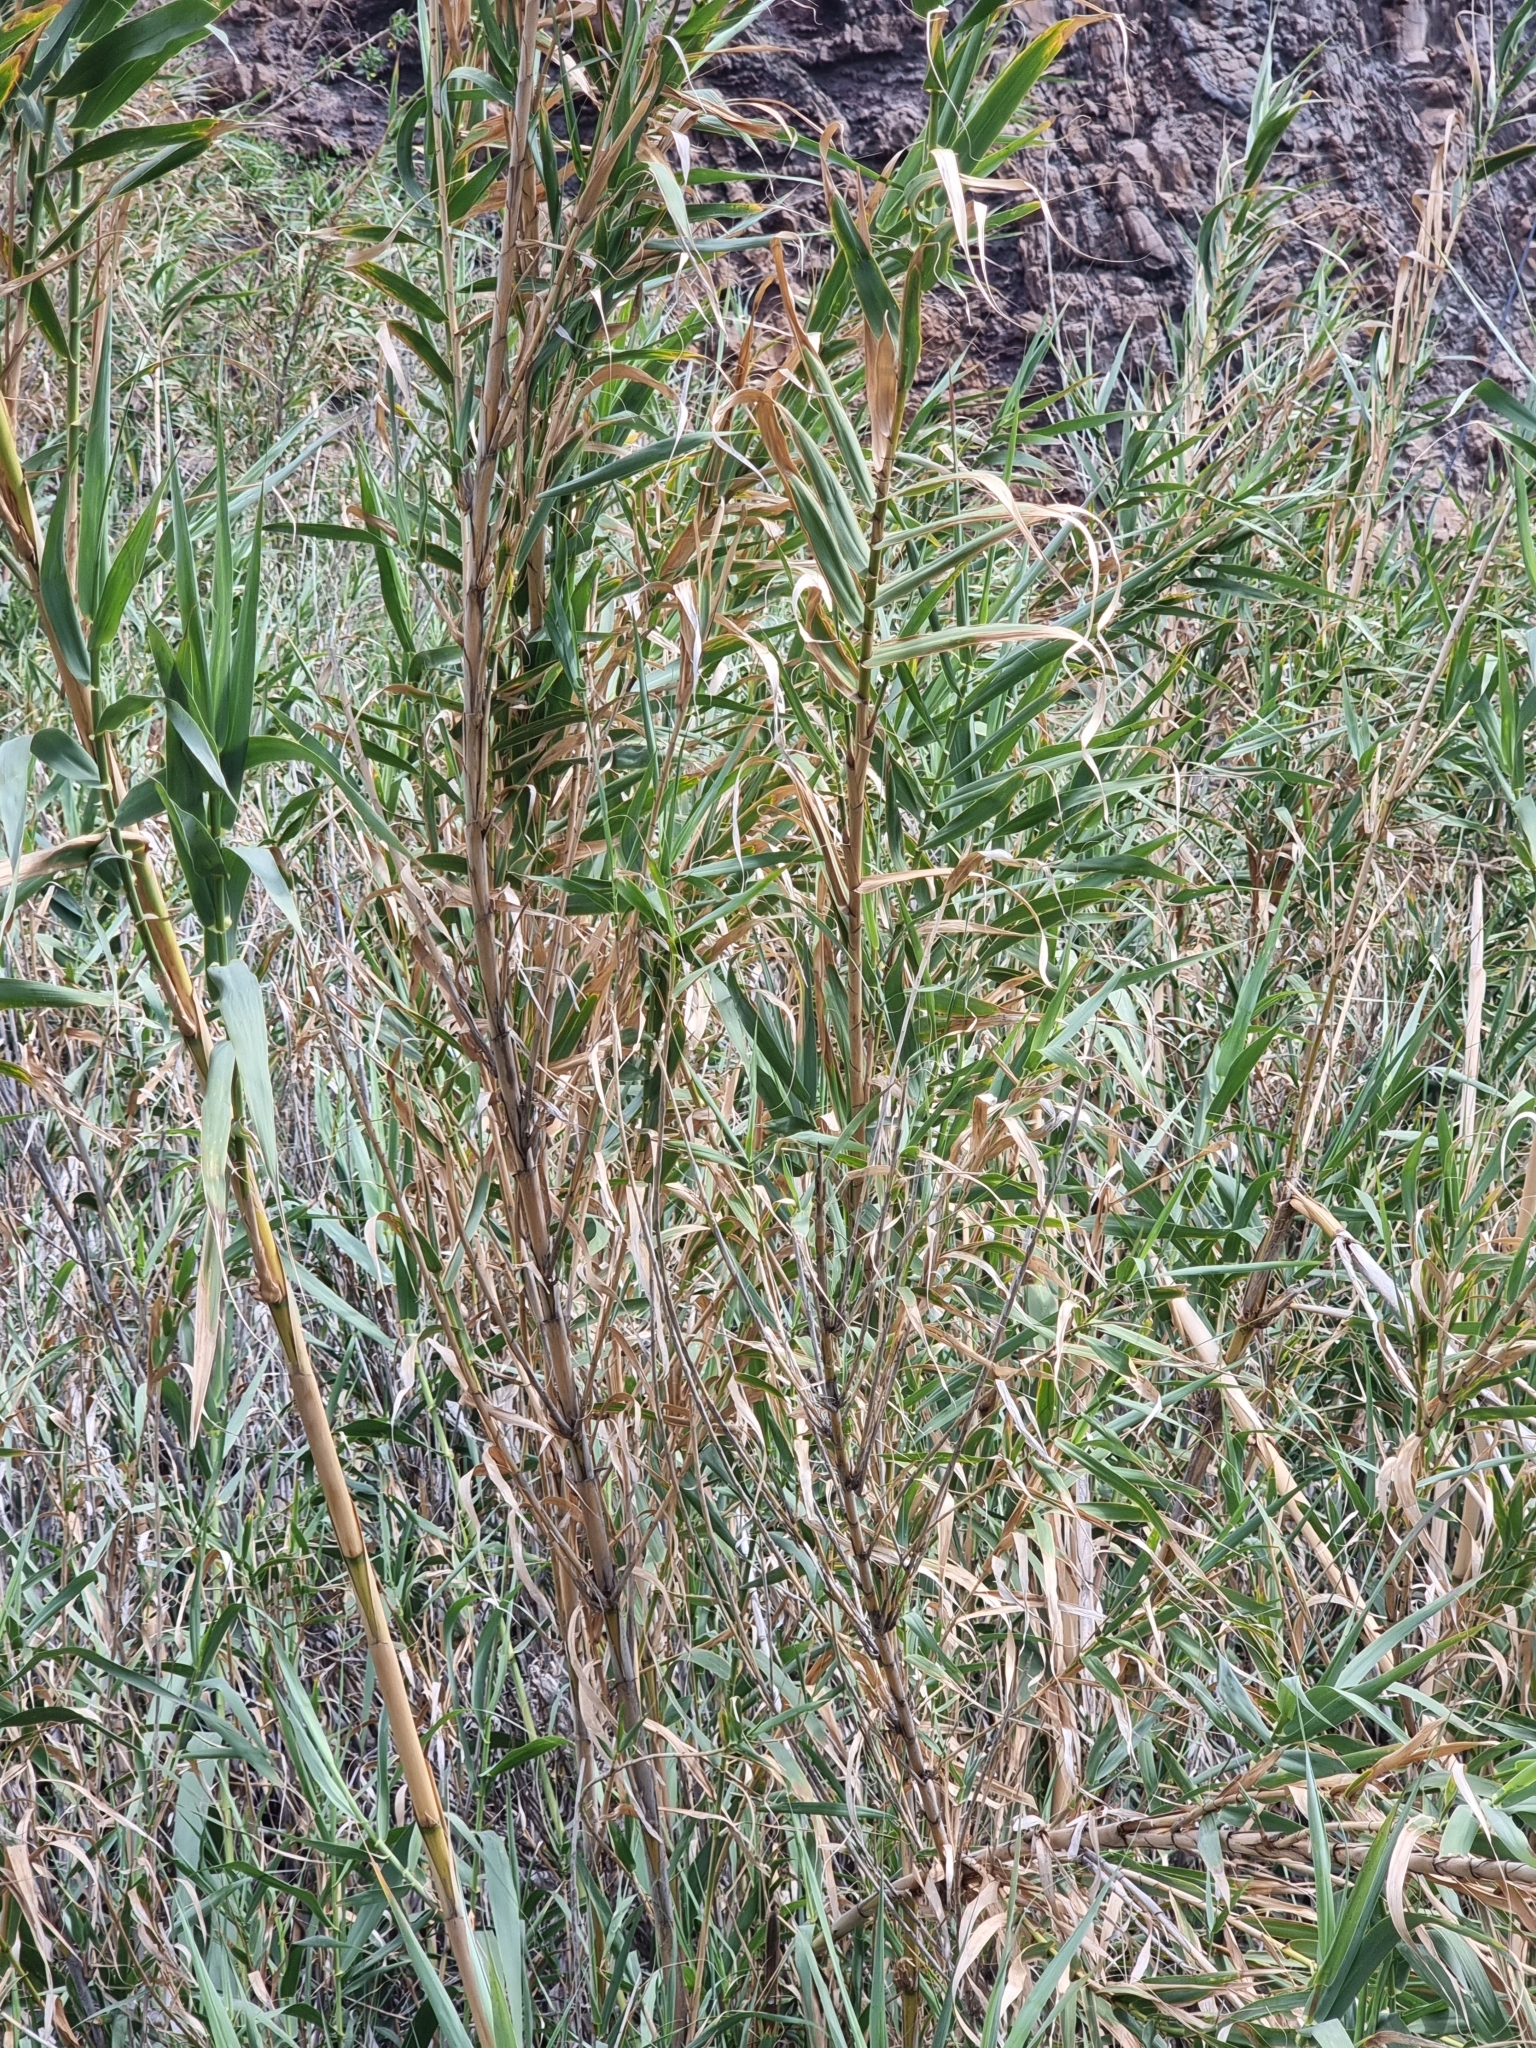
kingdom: Plantae
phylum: Tracheophyta
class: Liliopsida
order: Poales
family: Poaceae
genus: Arundo
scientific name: Arundo donax
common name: Giant reed
